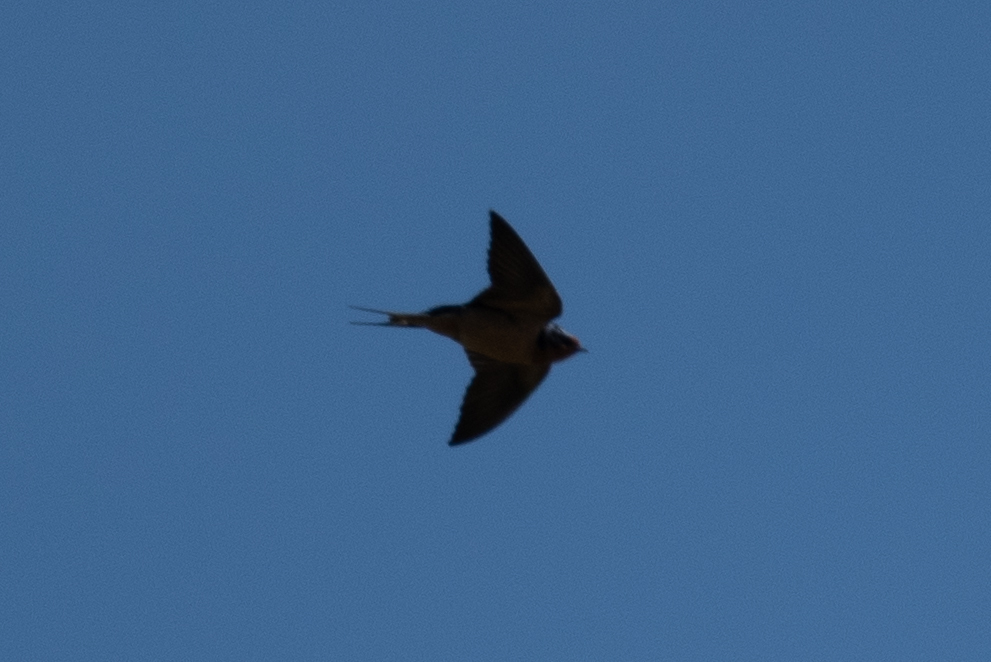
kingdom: Animalia
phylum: Chordata
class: Aves
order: Passeriformes
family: Hirundinidae
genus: Hirundo
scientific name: Hirundo rustica
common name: Barn swallow
